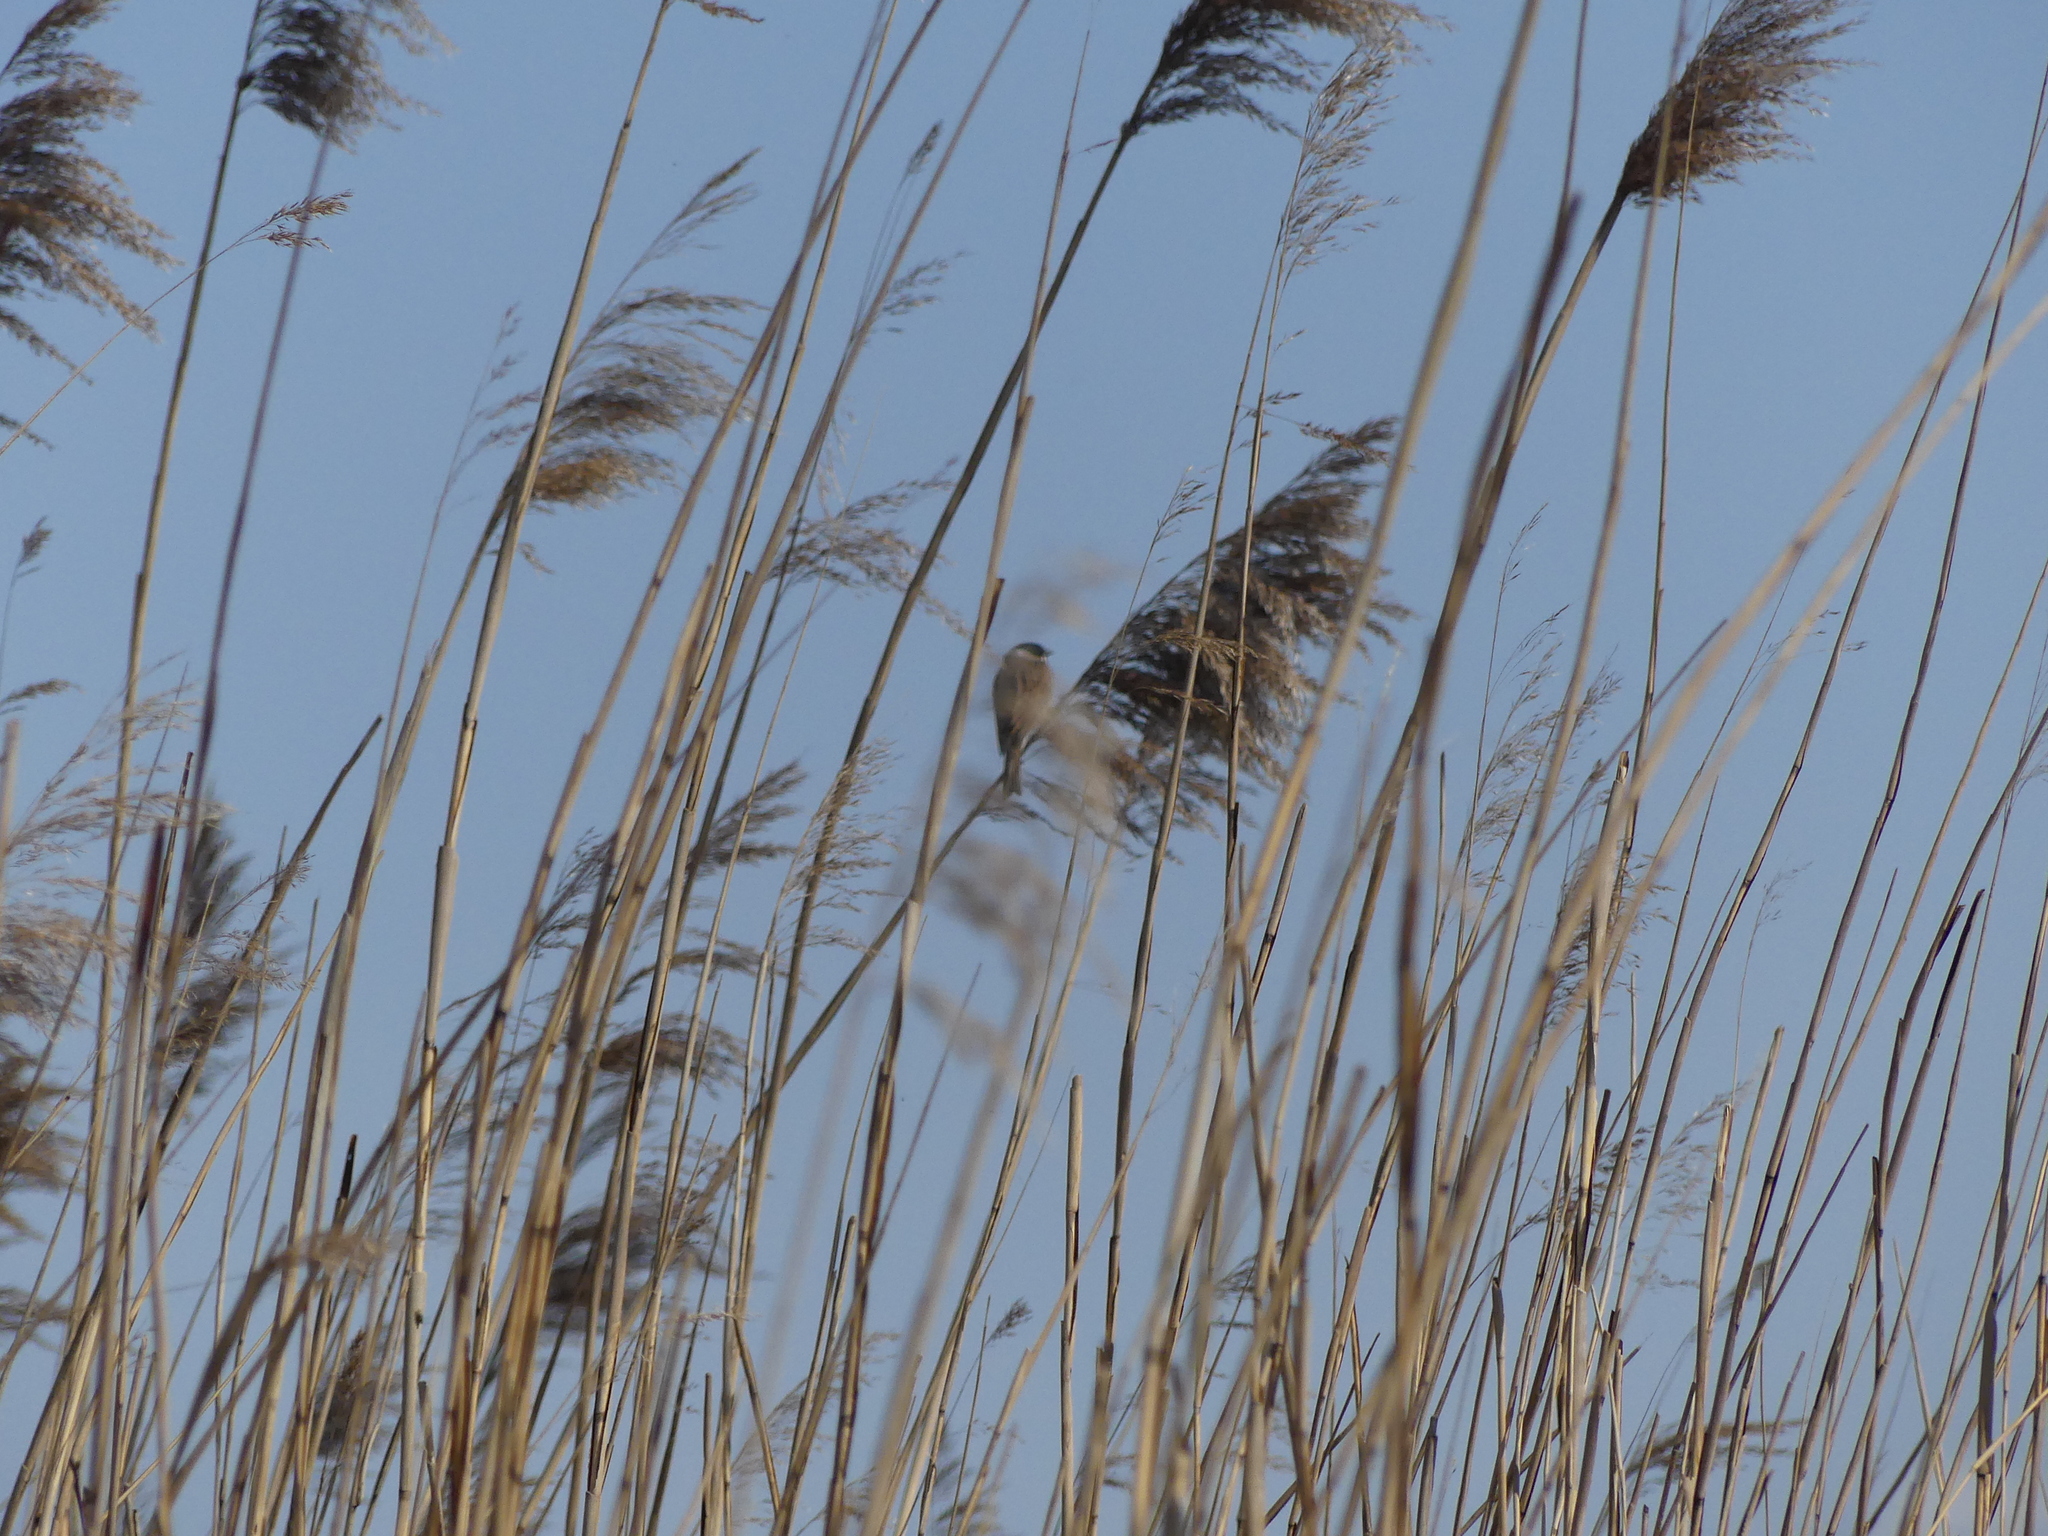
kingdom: Animalia
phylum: Chordata
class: Aves
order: Passeriformes
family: Emberizidae
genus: Emberiza
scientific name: Emberiza schoeniclus
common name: Reed bunting
